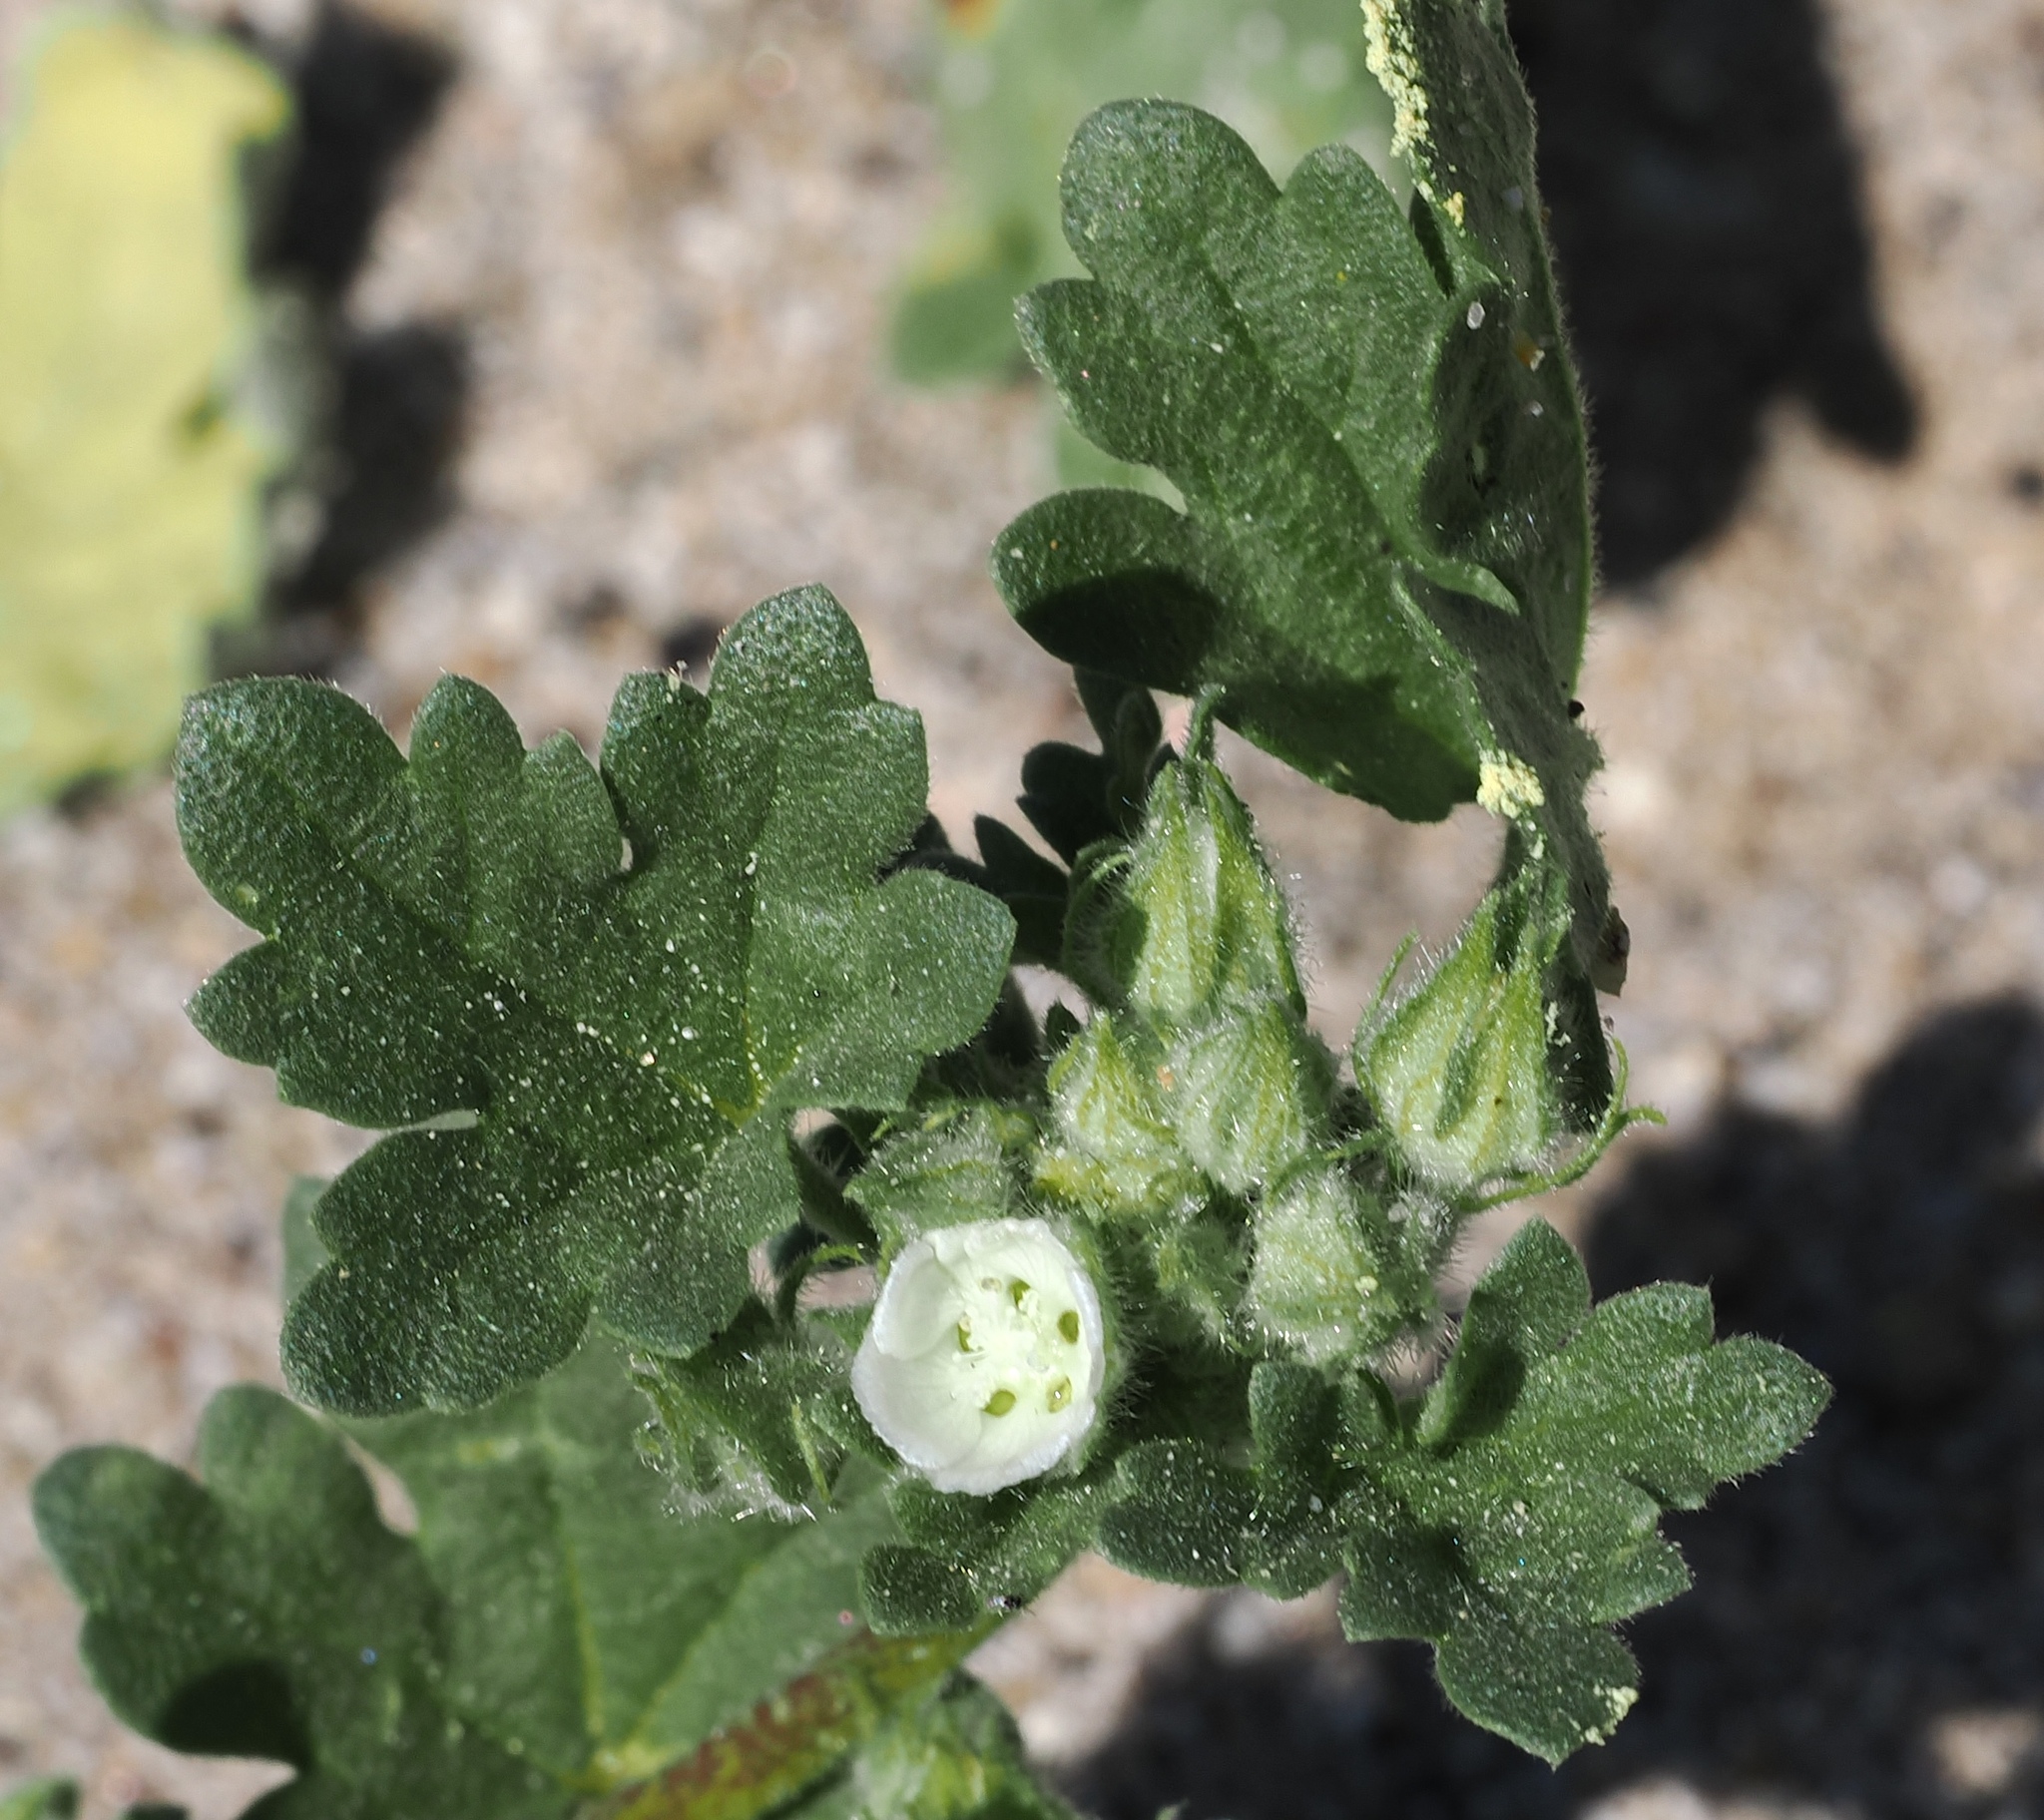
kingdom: Plantae
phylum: Tracheophyta
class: Magnoliopsida
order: Malvales
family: Malvaceae
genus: Eremalche
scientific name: Eremalche exilis
